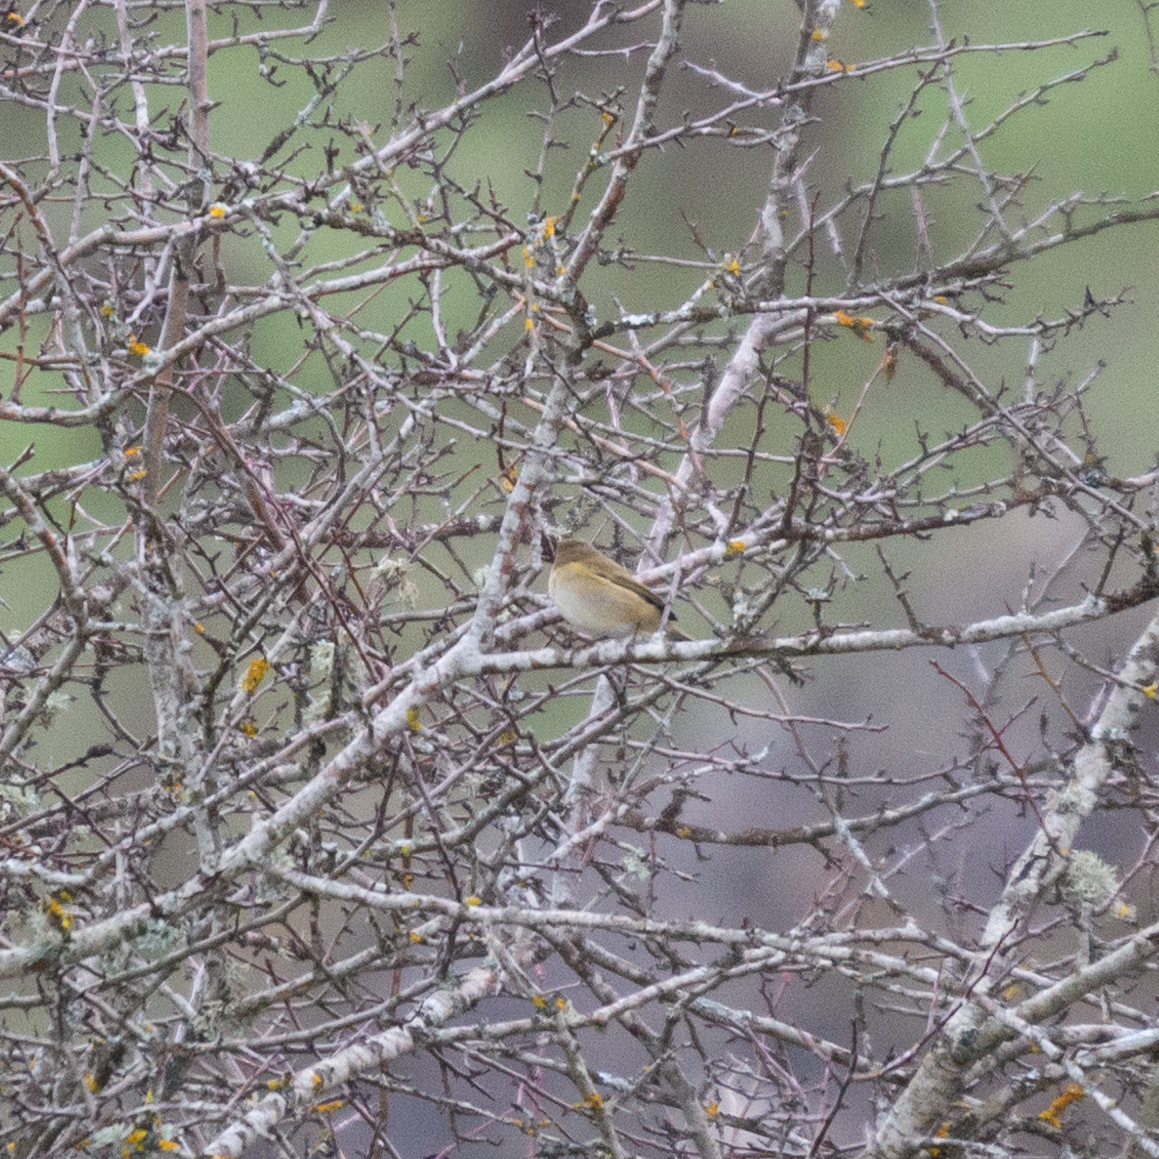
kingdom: Animalia
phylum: Chordata
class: Aves
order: Passeriformes
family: Phylloscopidae
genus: Phylloscopus
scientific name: Phylloscopus collybita
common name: Common chiffchaff
